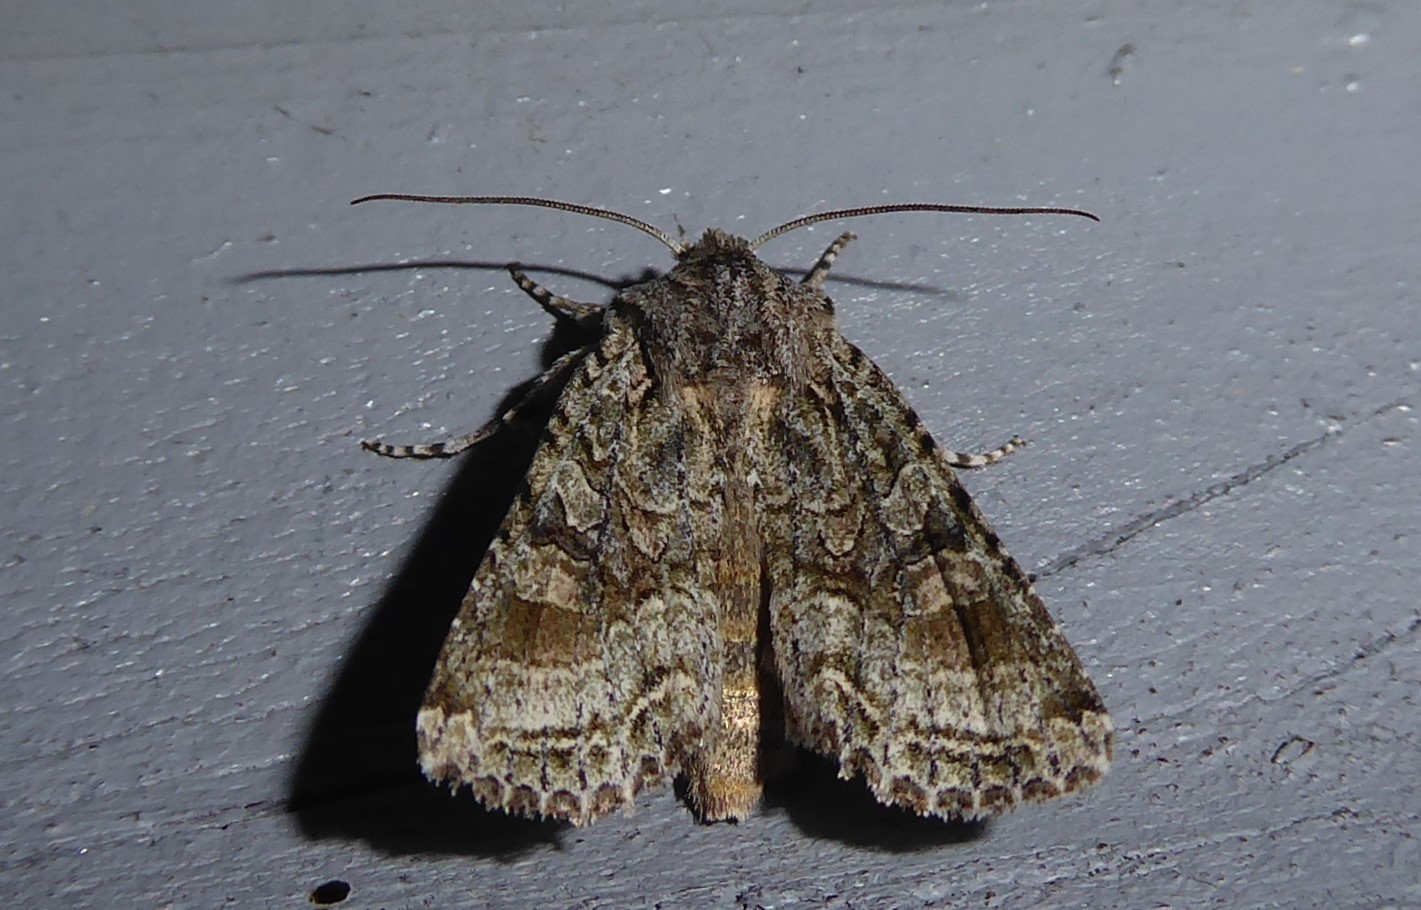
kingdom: Animalia
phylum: Arthropoda
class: Insecta
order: Lepidoptera
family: Noctuidae
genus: Ichneutica
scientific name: Ichneutica mutans
